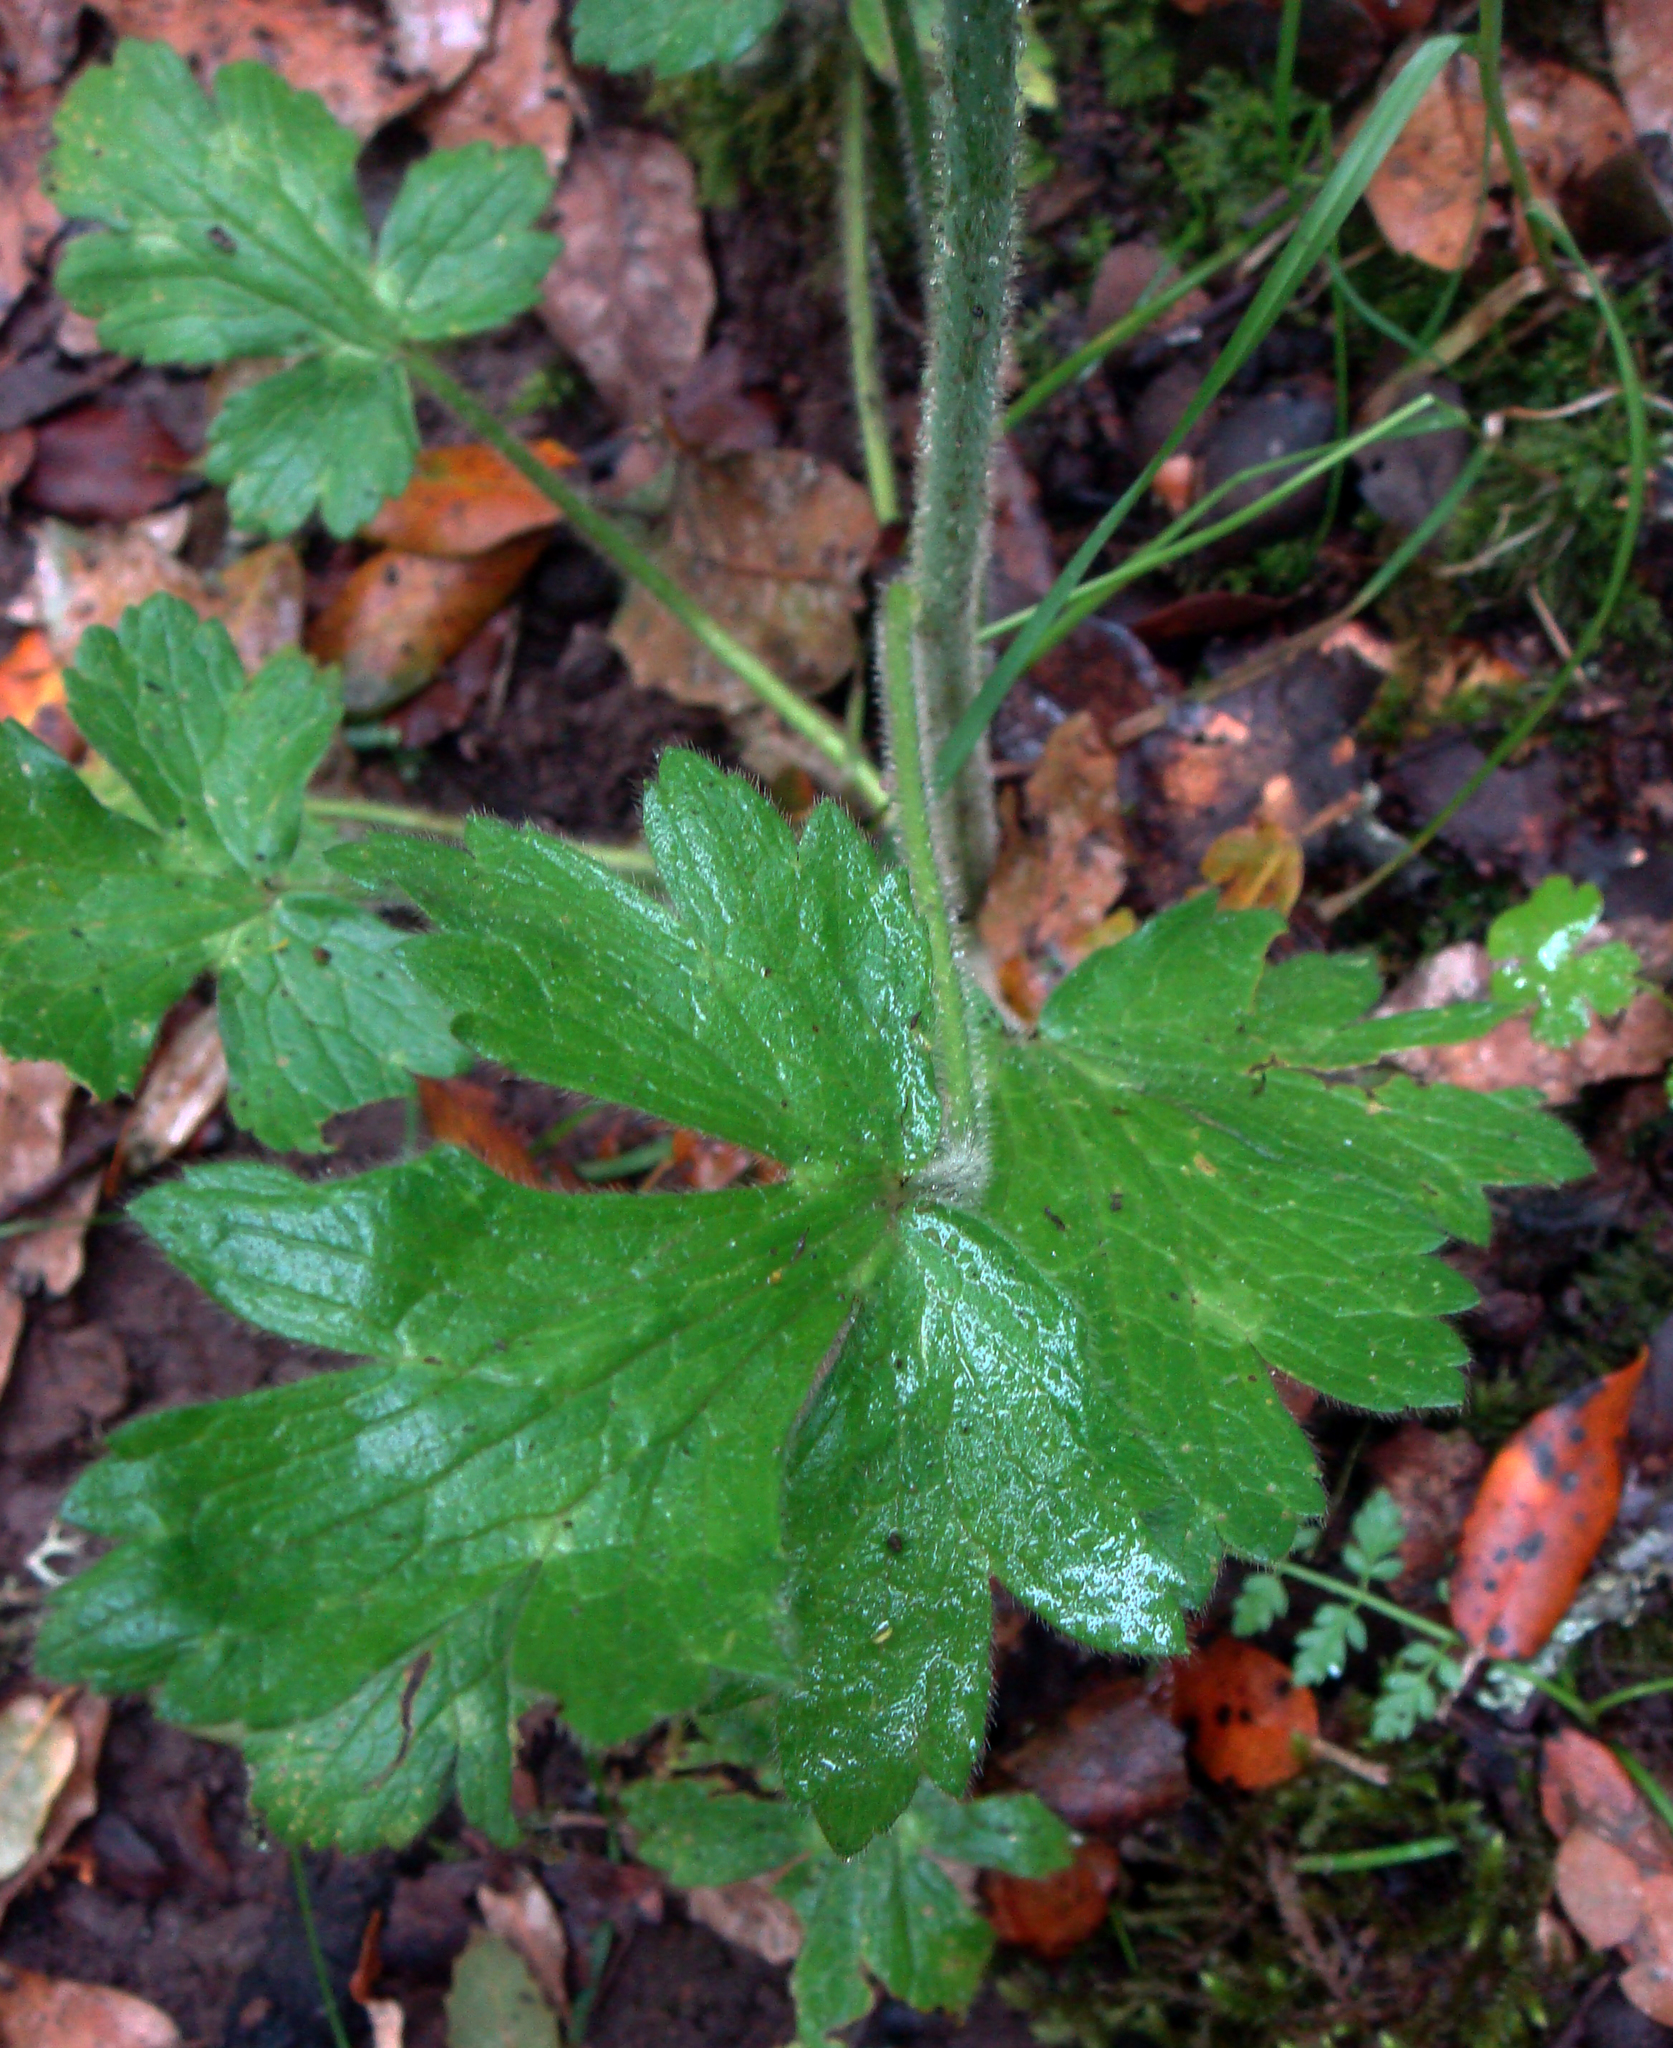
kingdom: Plantae
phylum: Tracheophyta
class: Magnoliopsida
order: Ranunculales
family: Ranunculaceae
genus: Ranunculus
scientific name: Ranunculus lanuginosus
